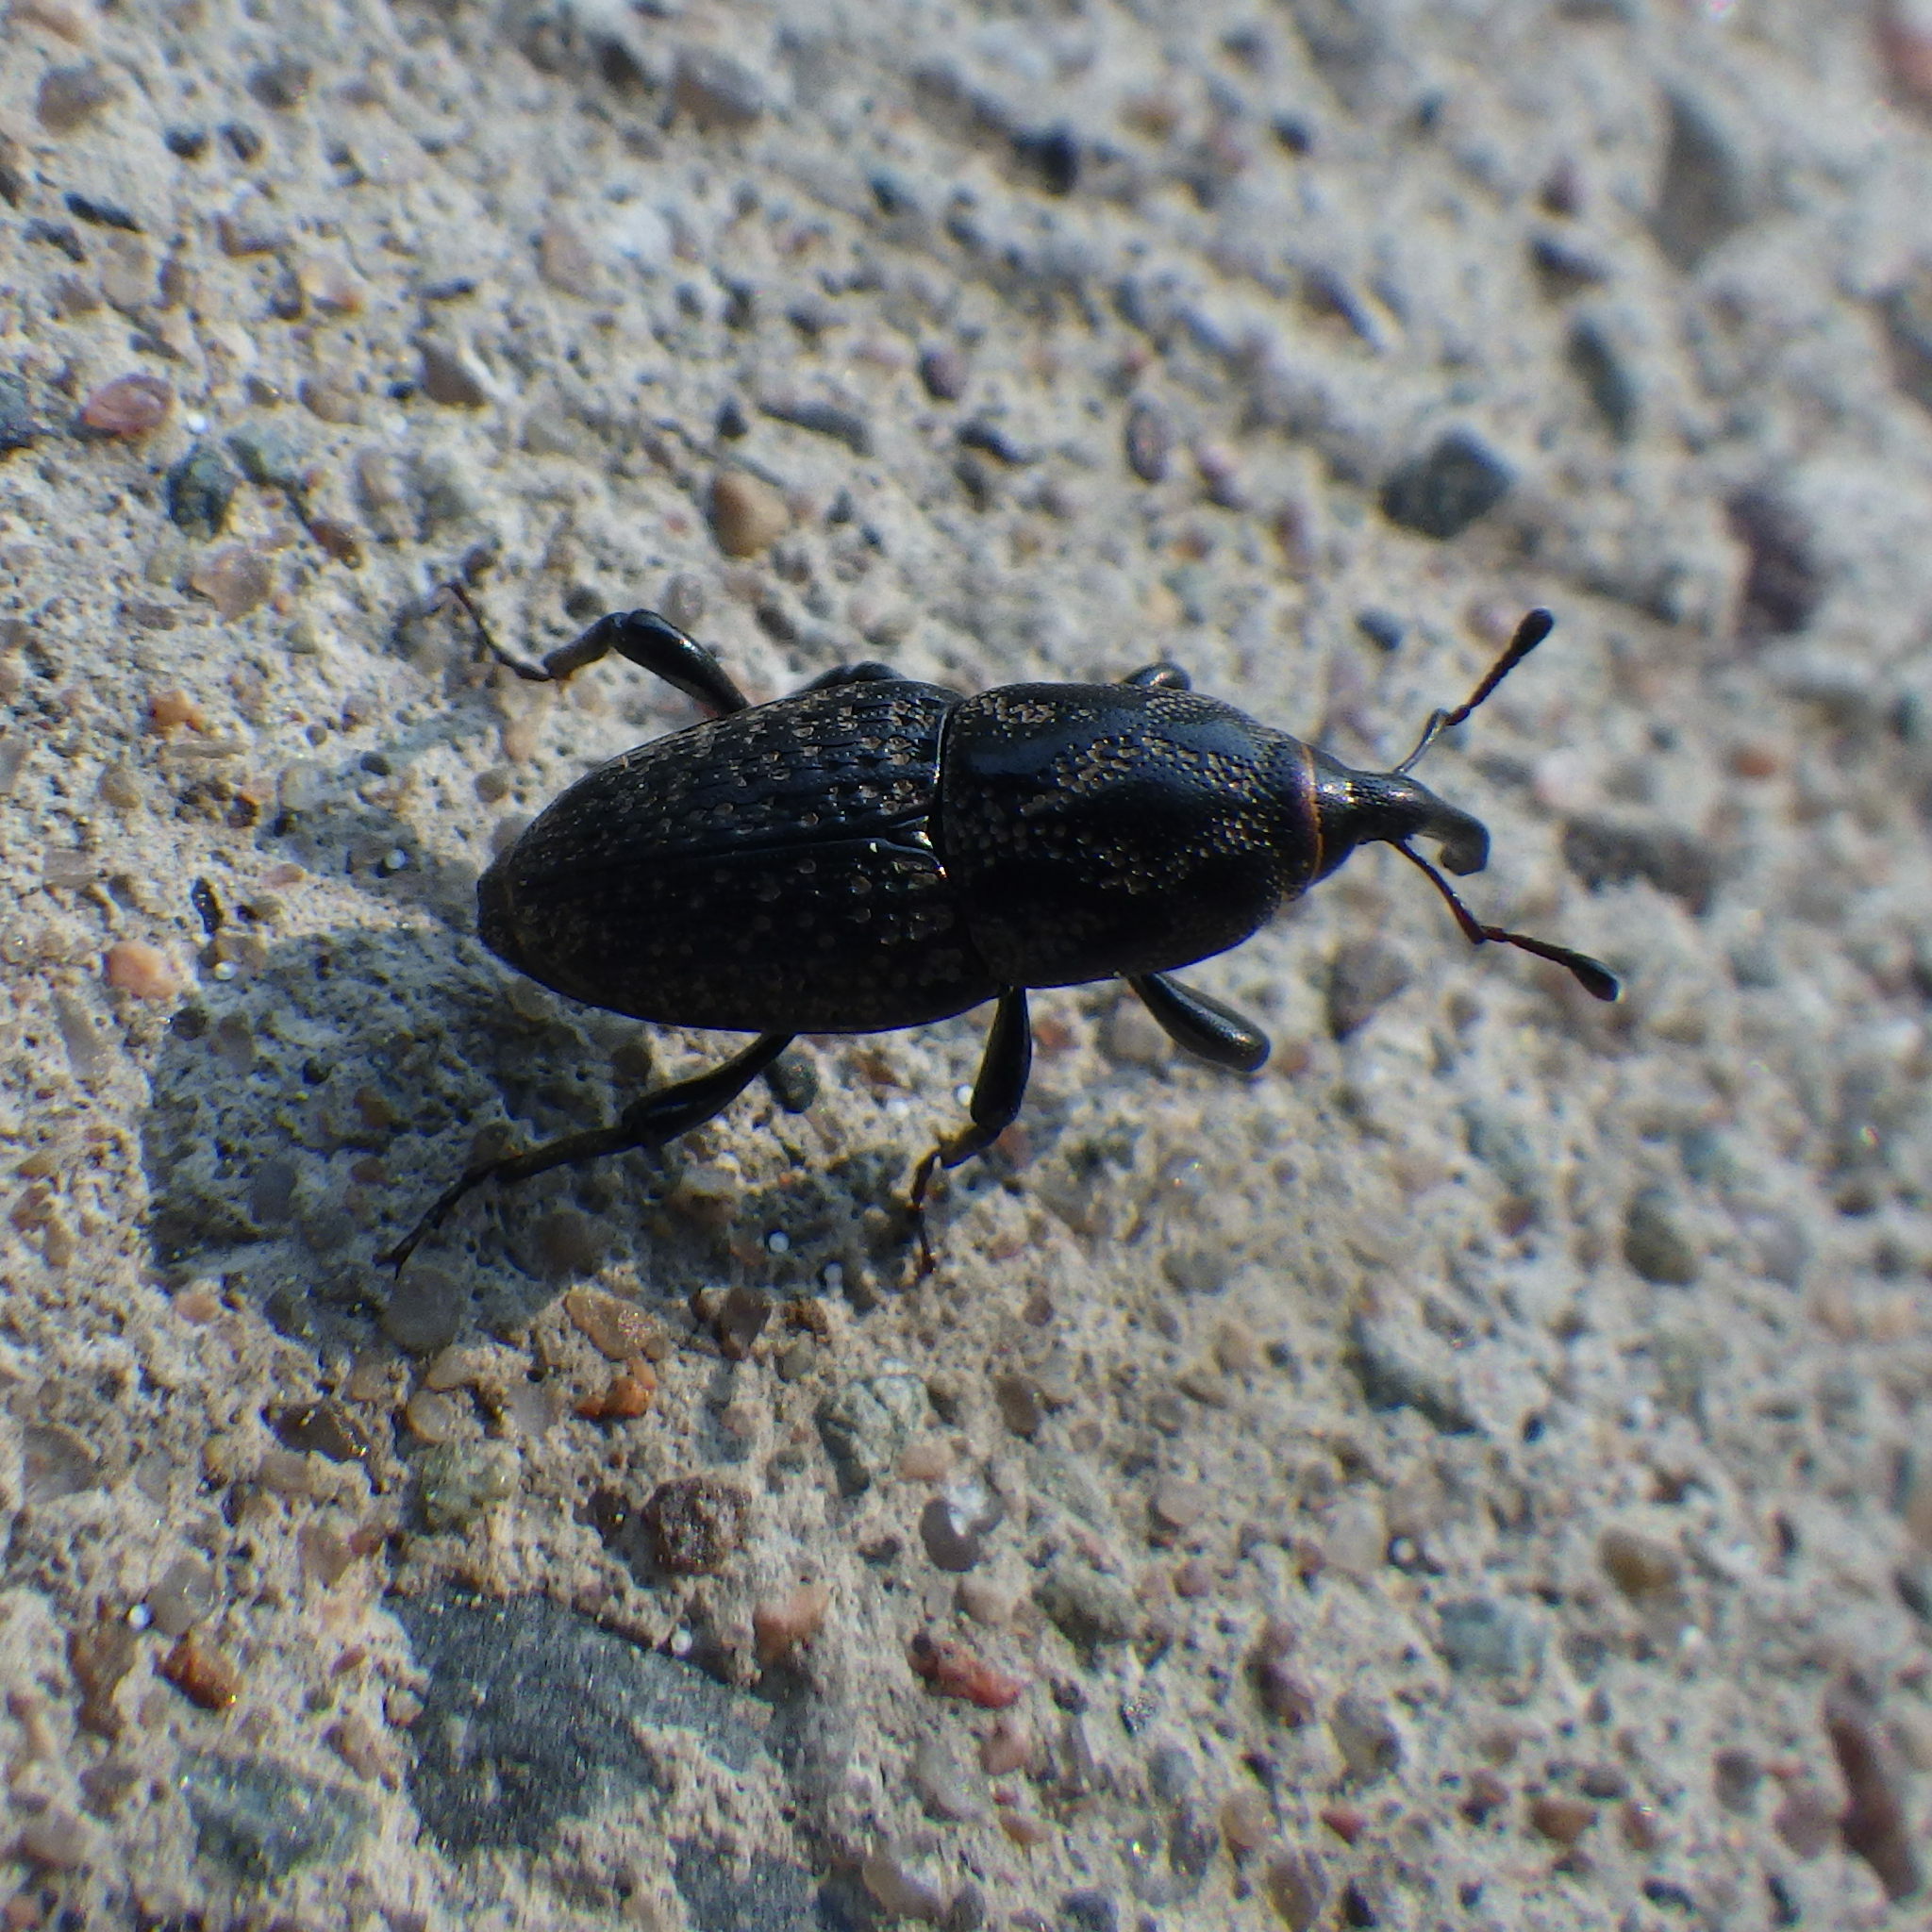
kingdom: Animalia
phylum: Arthropoda
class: Insecta
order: Coleoptera
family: Dryophthoridae
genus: Sphenophorus
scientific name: Sphenophorus zeae
